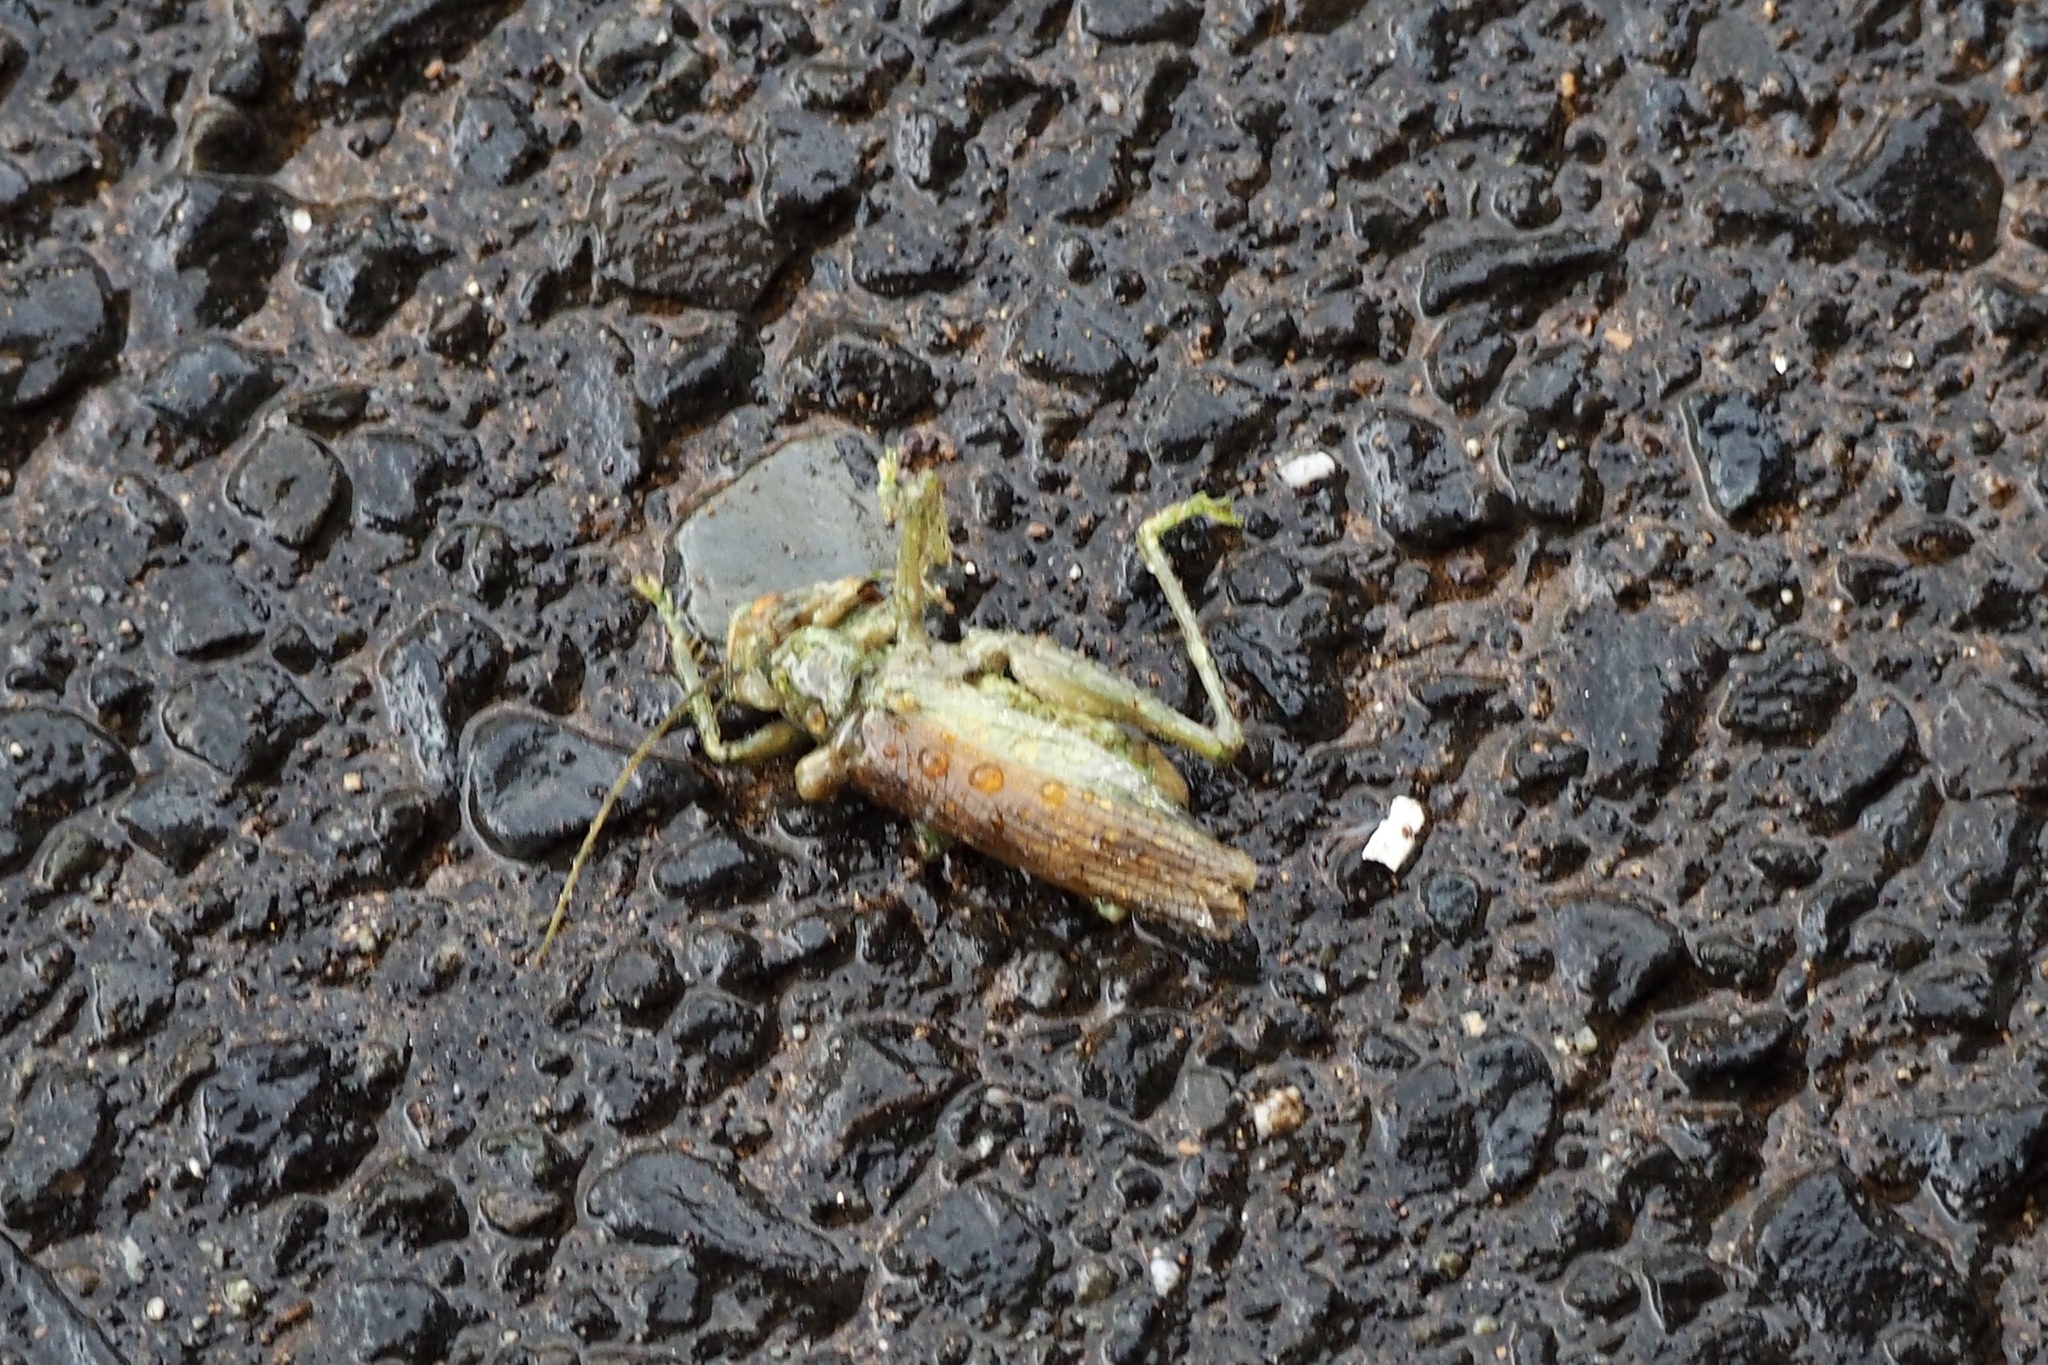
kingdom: Animalia
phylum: Arthropoda
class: Insecta
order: Orthoptera
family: Gryllacrididae
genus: Eugryllacris
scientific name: Eugryllacris japonica
